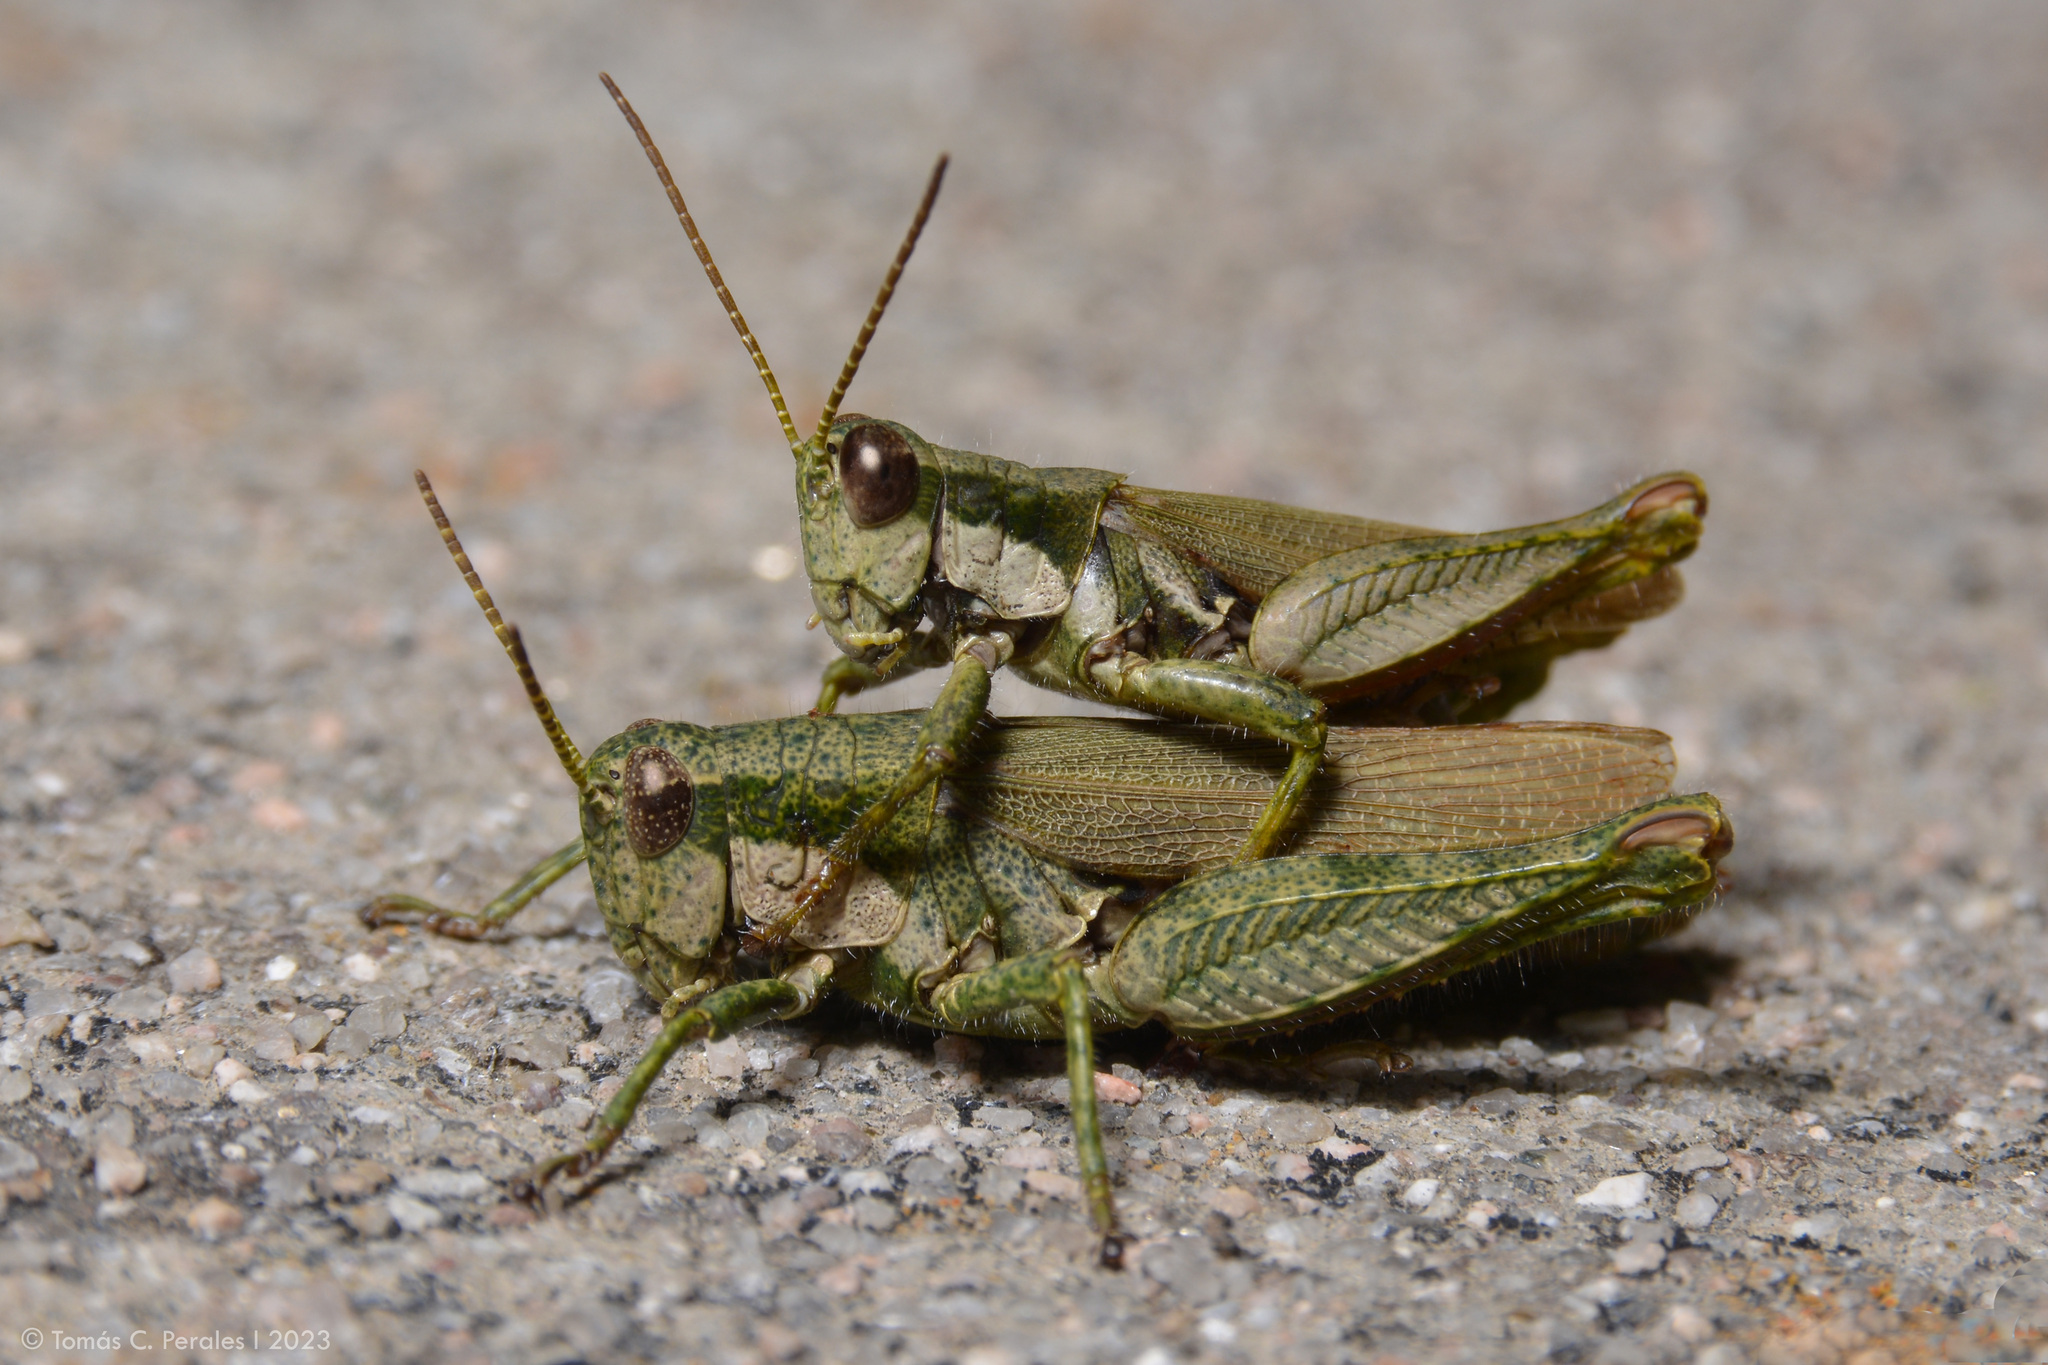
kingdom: Animalia
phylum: Arthropoda
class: Insecta
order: Orthoptera
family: Acrididae
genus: Ronderosia
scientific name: Ronderosia bergii
